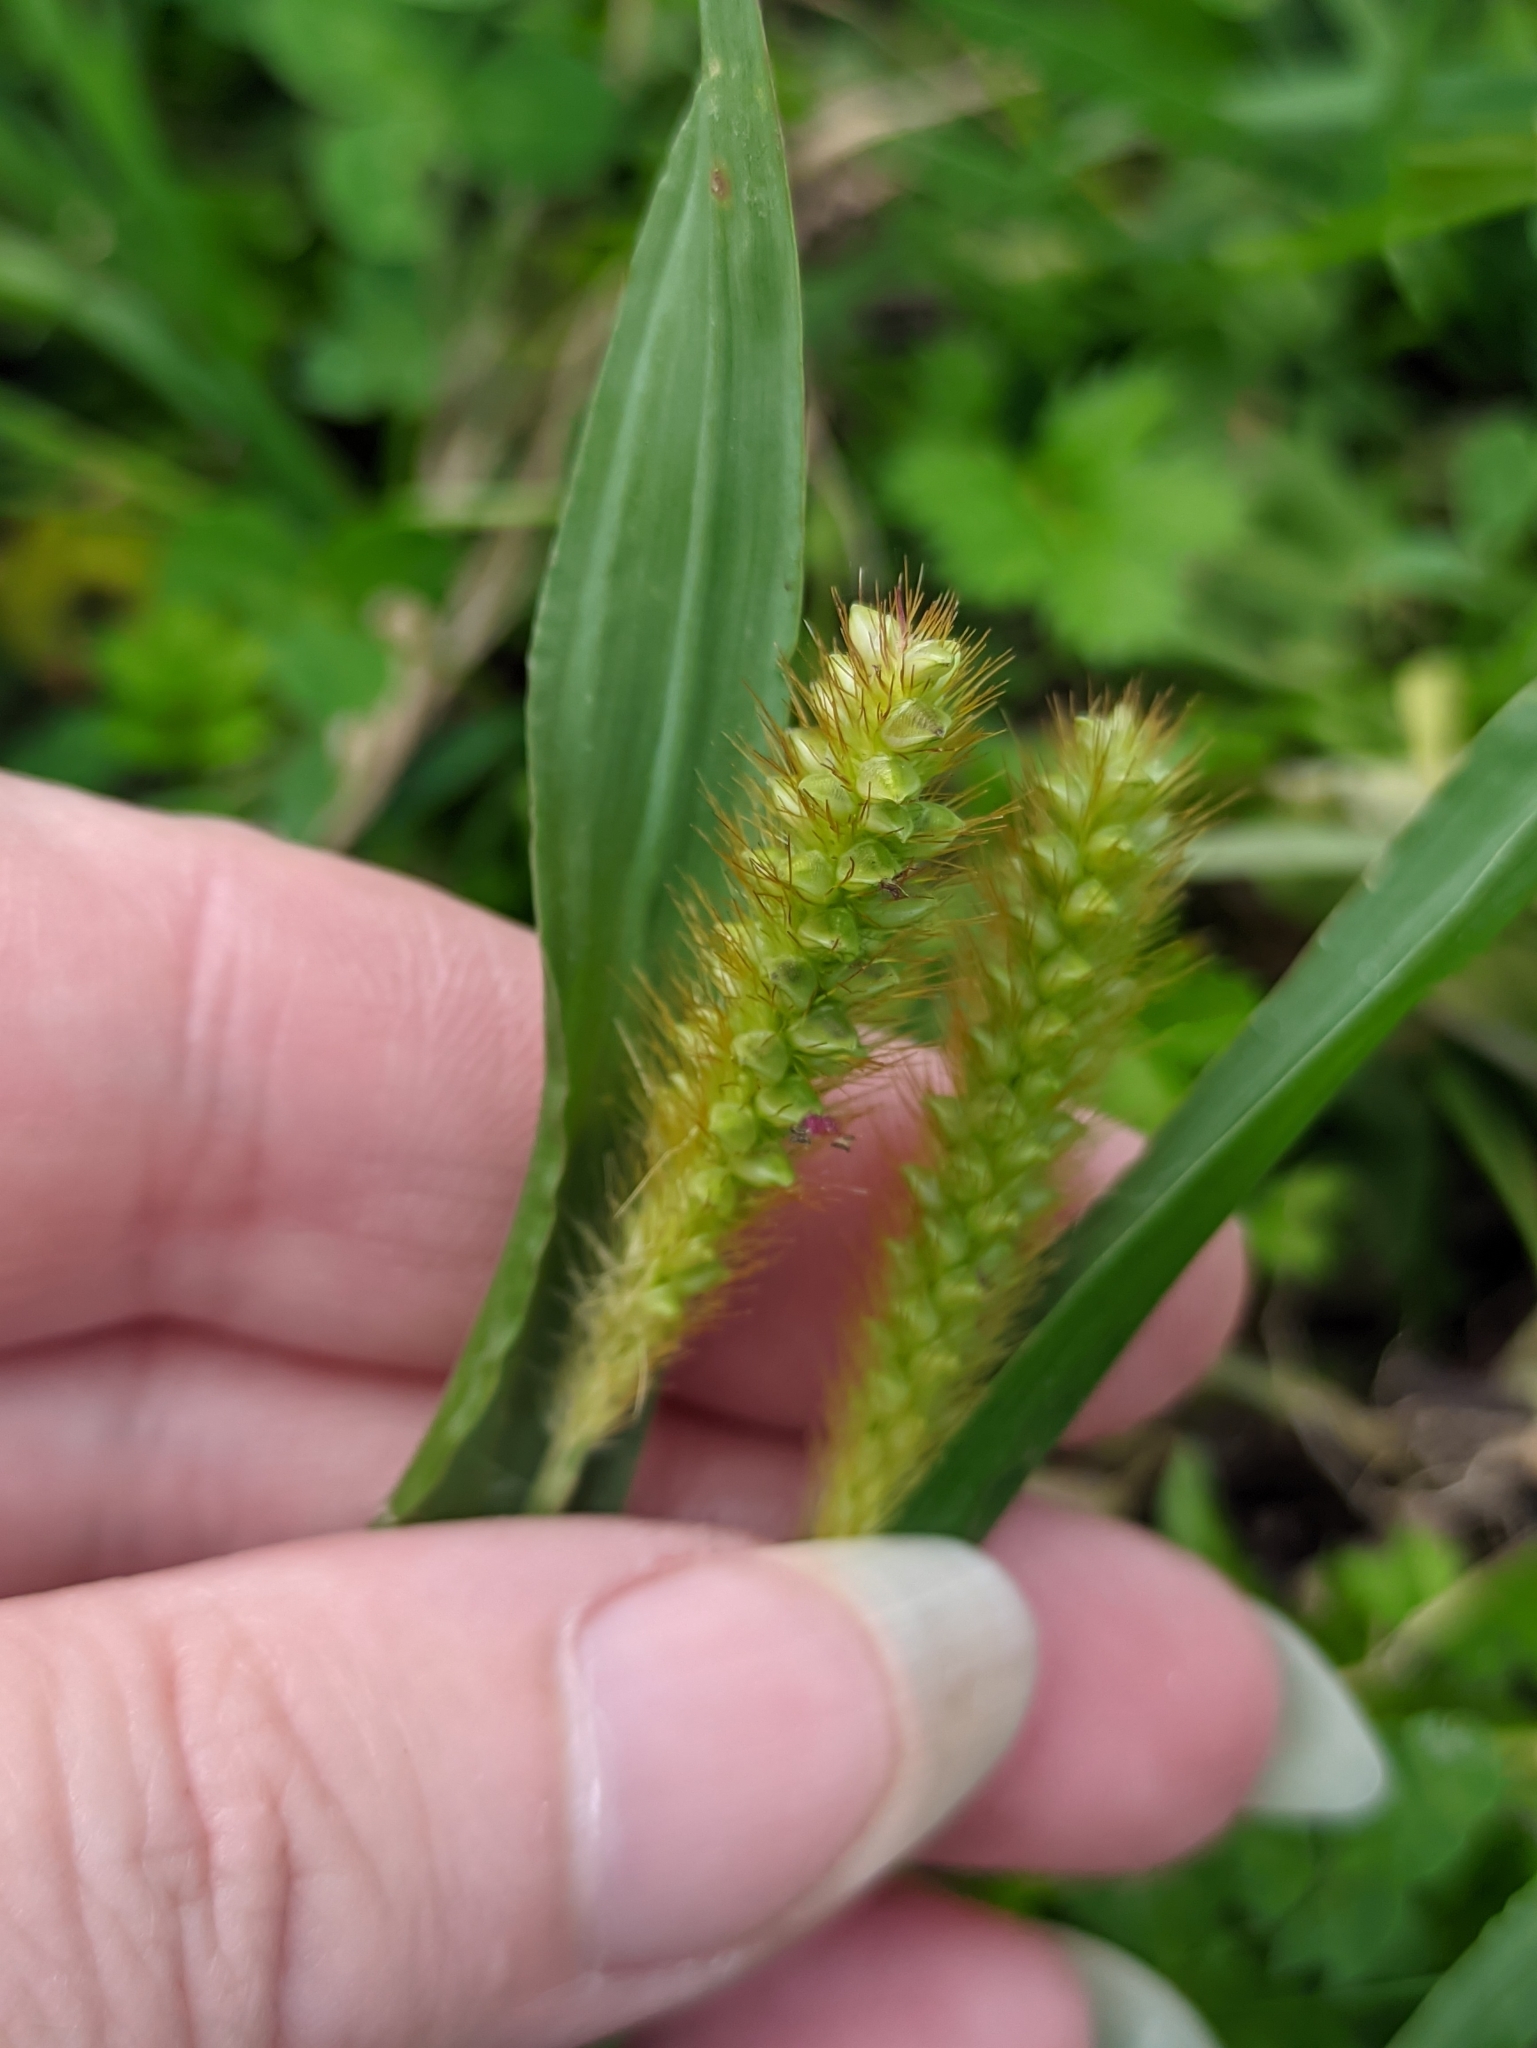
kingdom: Plantae
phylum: Tracheophyta
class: Liliopsida
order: Poales
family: Poaceae
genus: Setaria
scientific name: Setaria pumila
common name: Yellow bristle-grass
